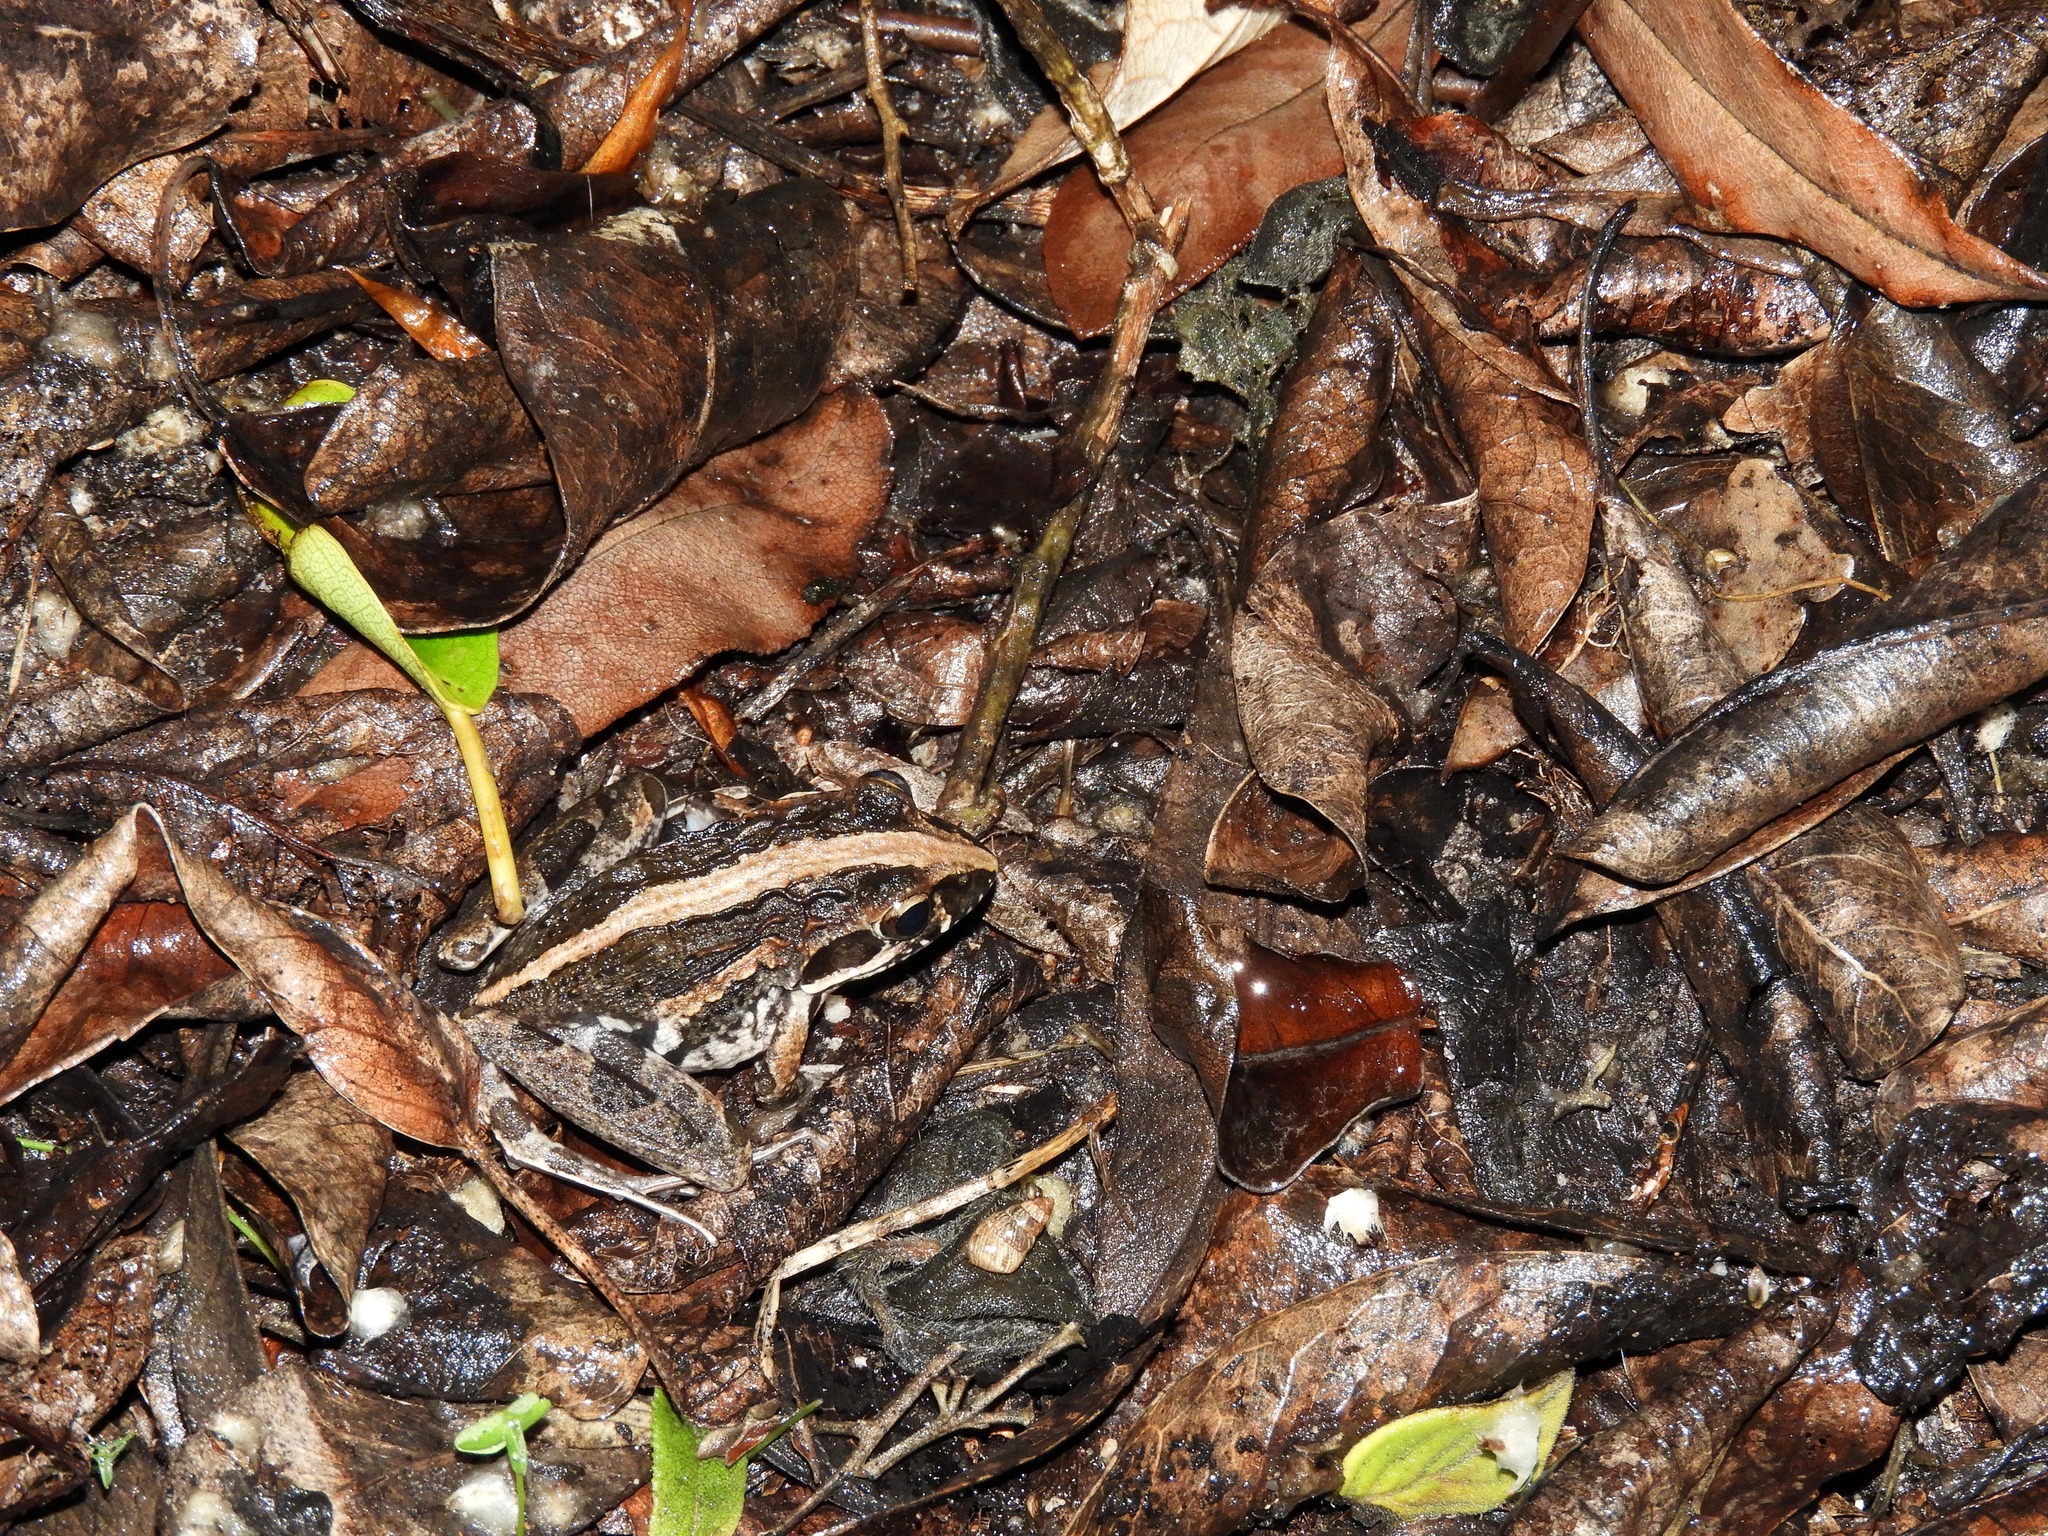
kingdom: Animalia
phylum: Chordata
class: Amphibia
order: Anura
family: Pyxicephalidae
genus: Strongylopus
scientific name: Strongylopus grayii
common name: Gray's stream frog
